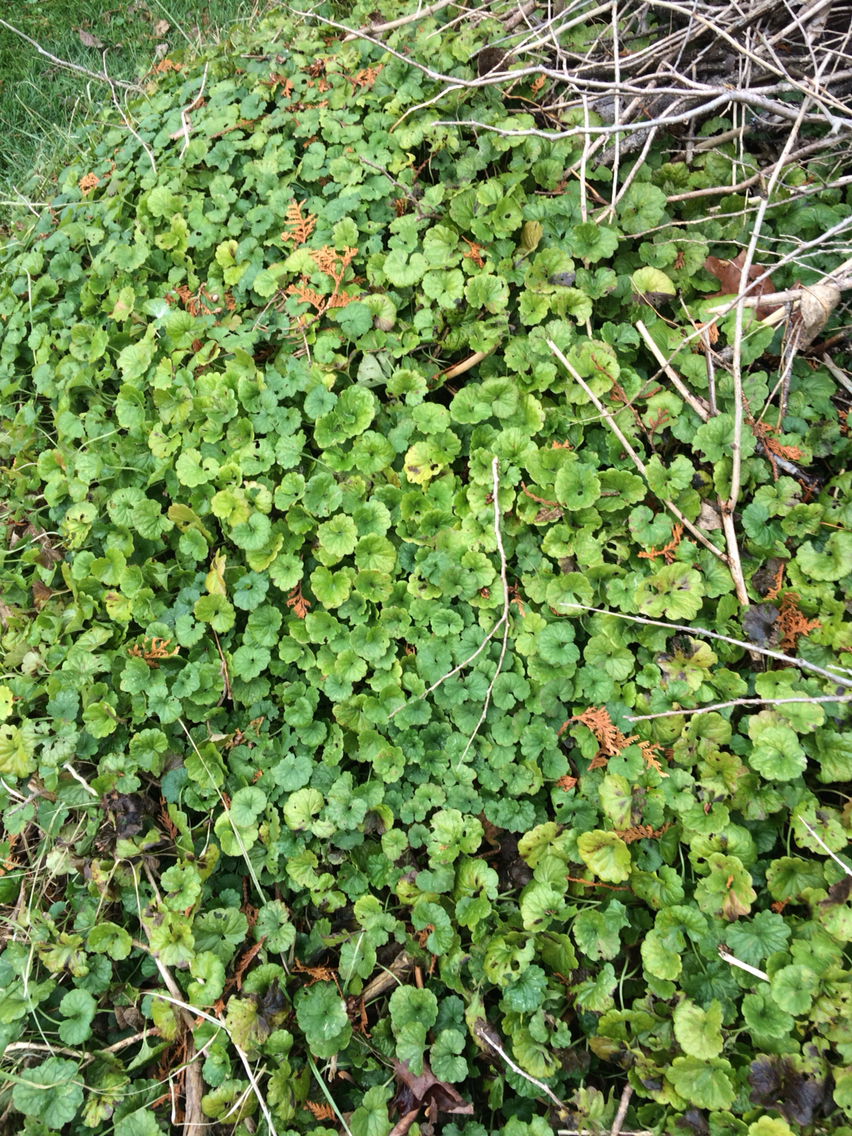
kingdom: Plantae
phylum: Tracheophyta
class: Magnoliopsida
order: Lamiales
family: Lamiaceae
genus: Glechoma
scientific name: Glechoma hederacea
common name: Ground ivy
